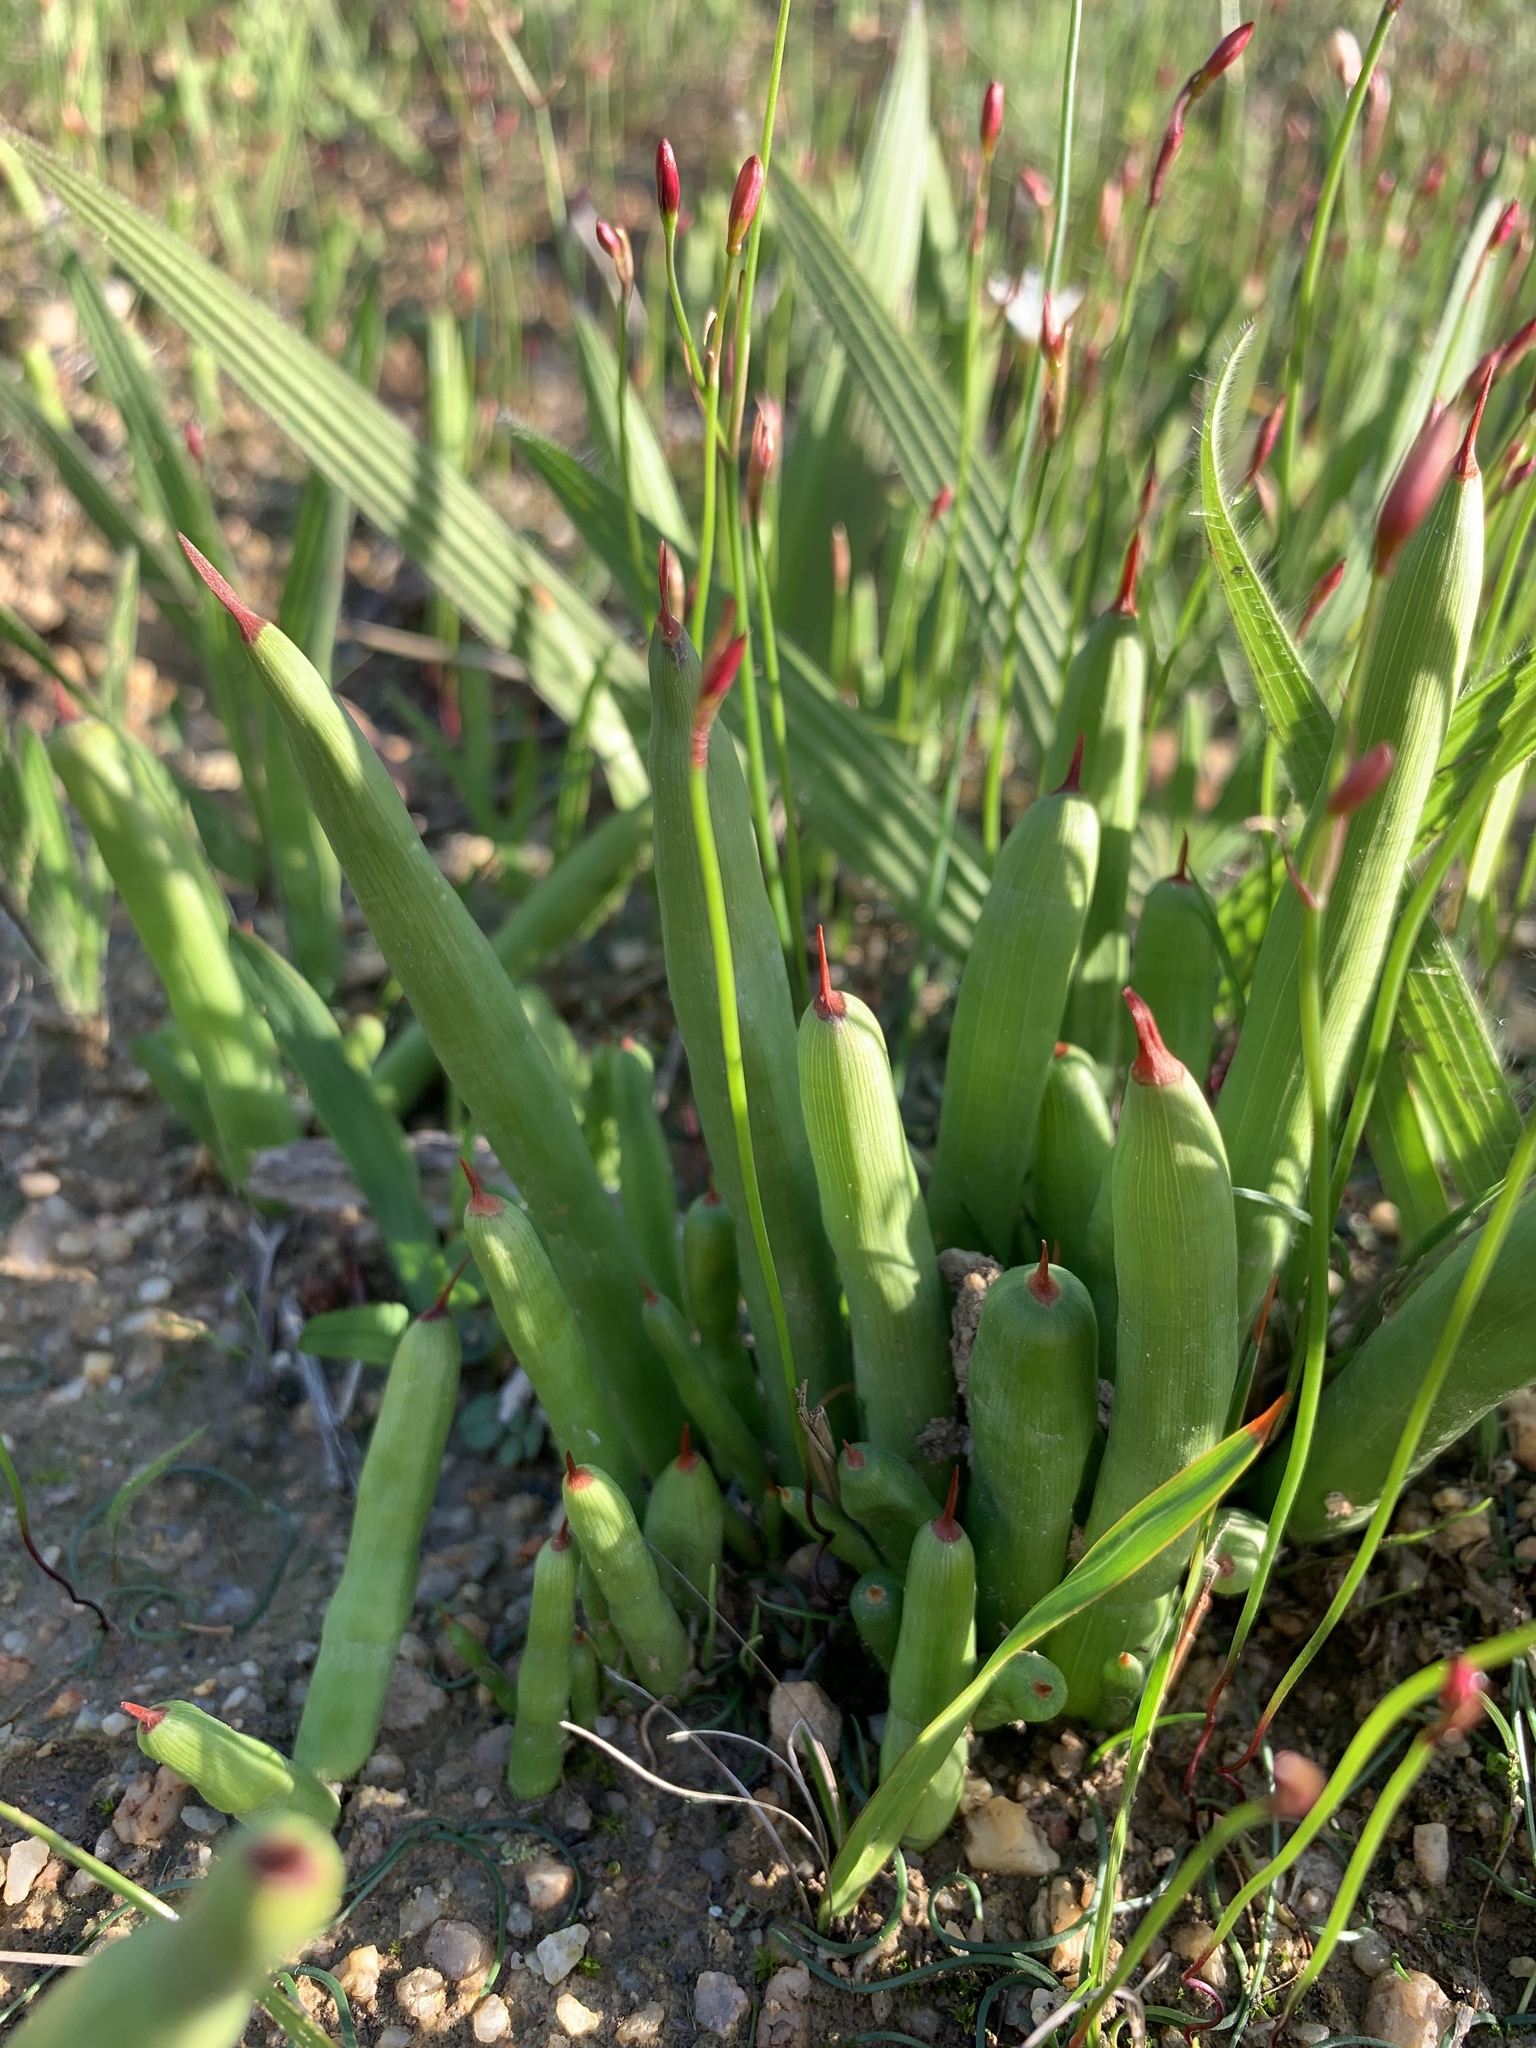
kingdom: Plantae
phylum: Tracheophyta
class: Liliopsida
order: Asparagales
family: Iridaceae
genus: Micranthus
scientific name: Micranthus tubulosus
